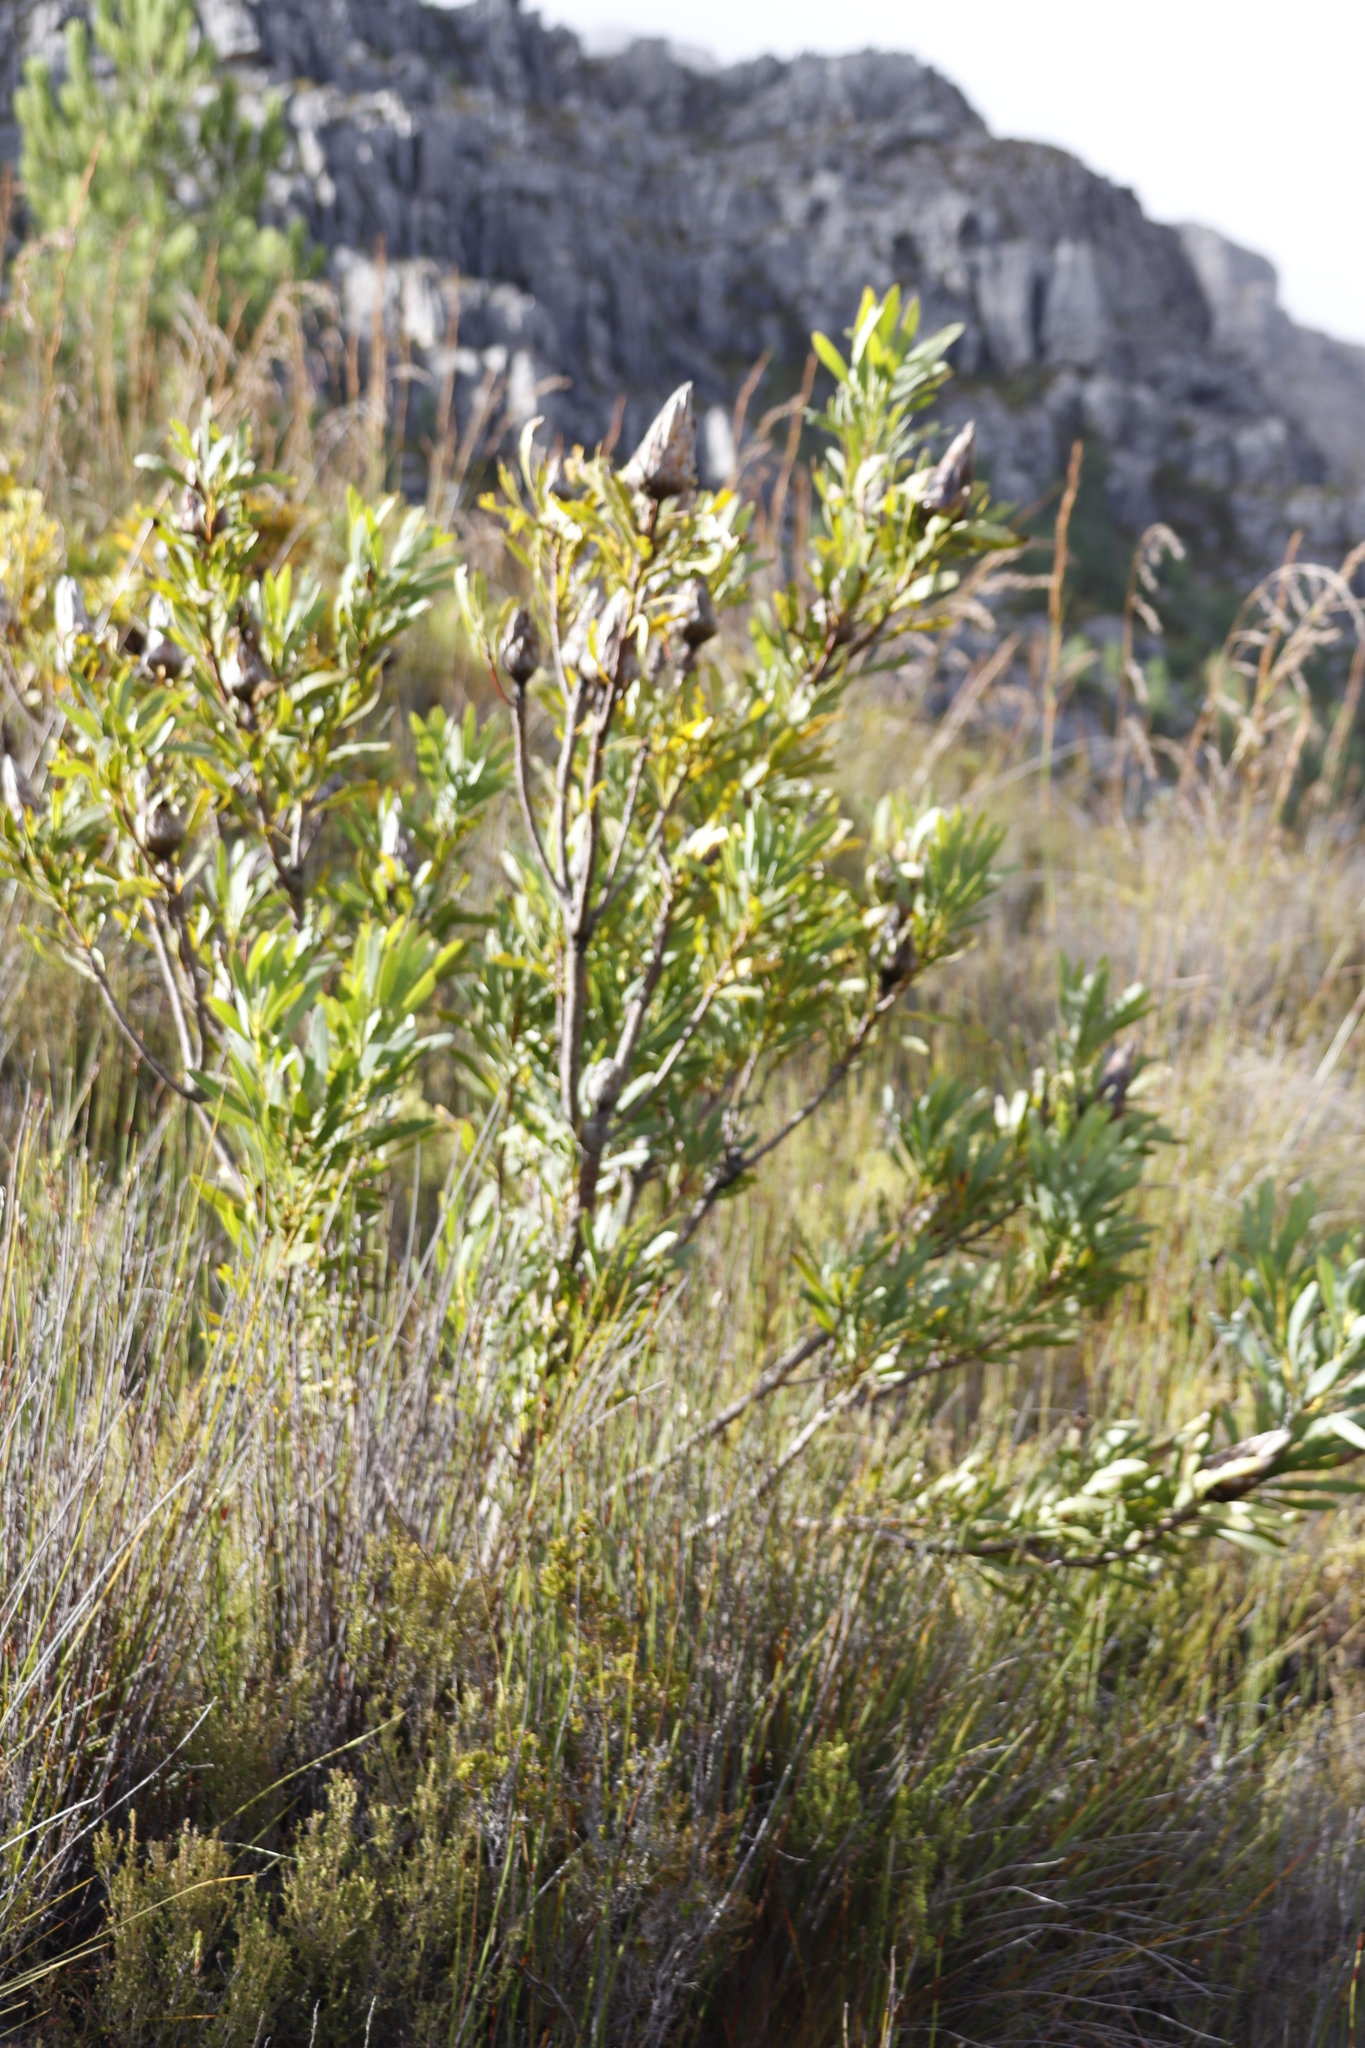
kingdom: Plantae
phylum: Tracheophyta
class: Magnoliopsida
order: Proteales
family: Proteaceae
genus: Protea
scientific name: Protea repens
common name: Sugarbush
